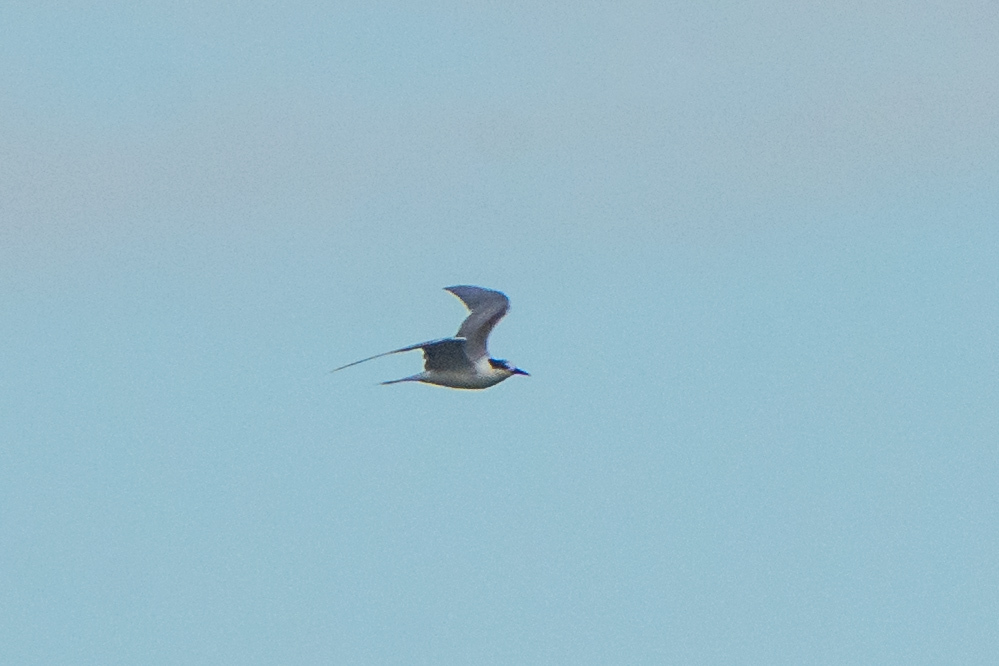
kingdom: Animalia
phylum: Chordata
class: Aves
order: Charadriiformes
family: Laridae
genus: Sterna
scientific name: Sterna hirundo
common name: Common tern
